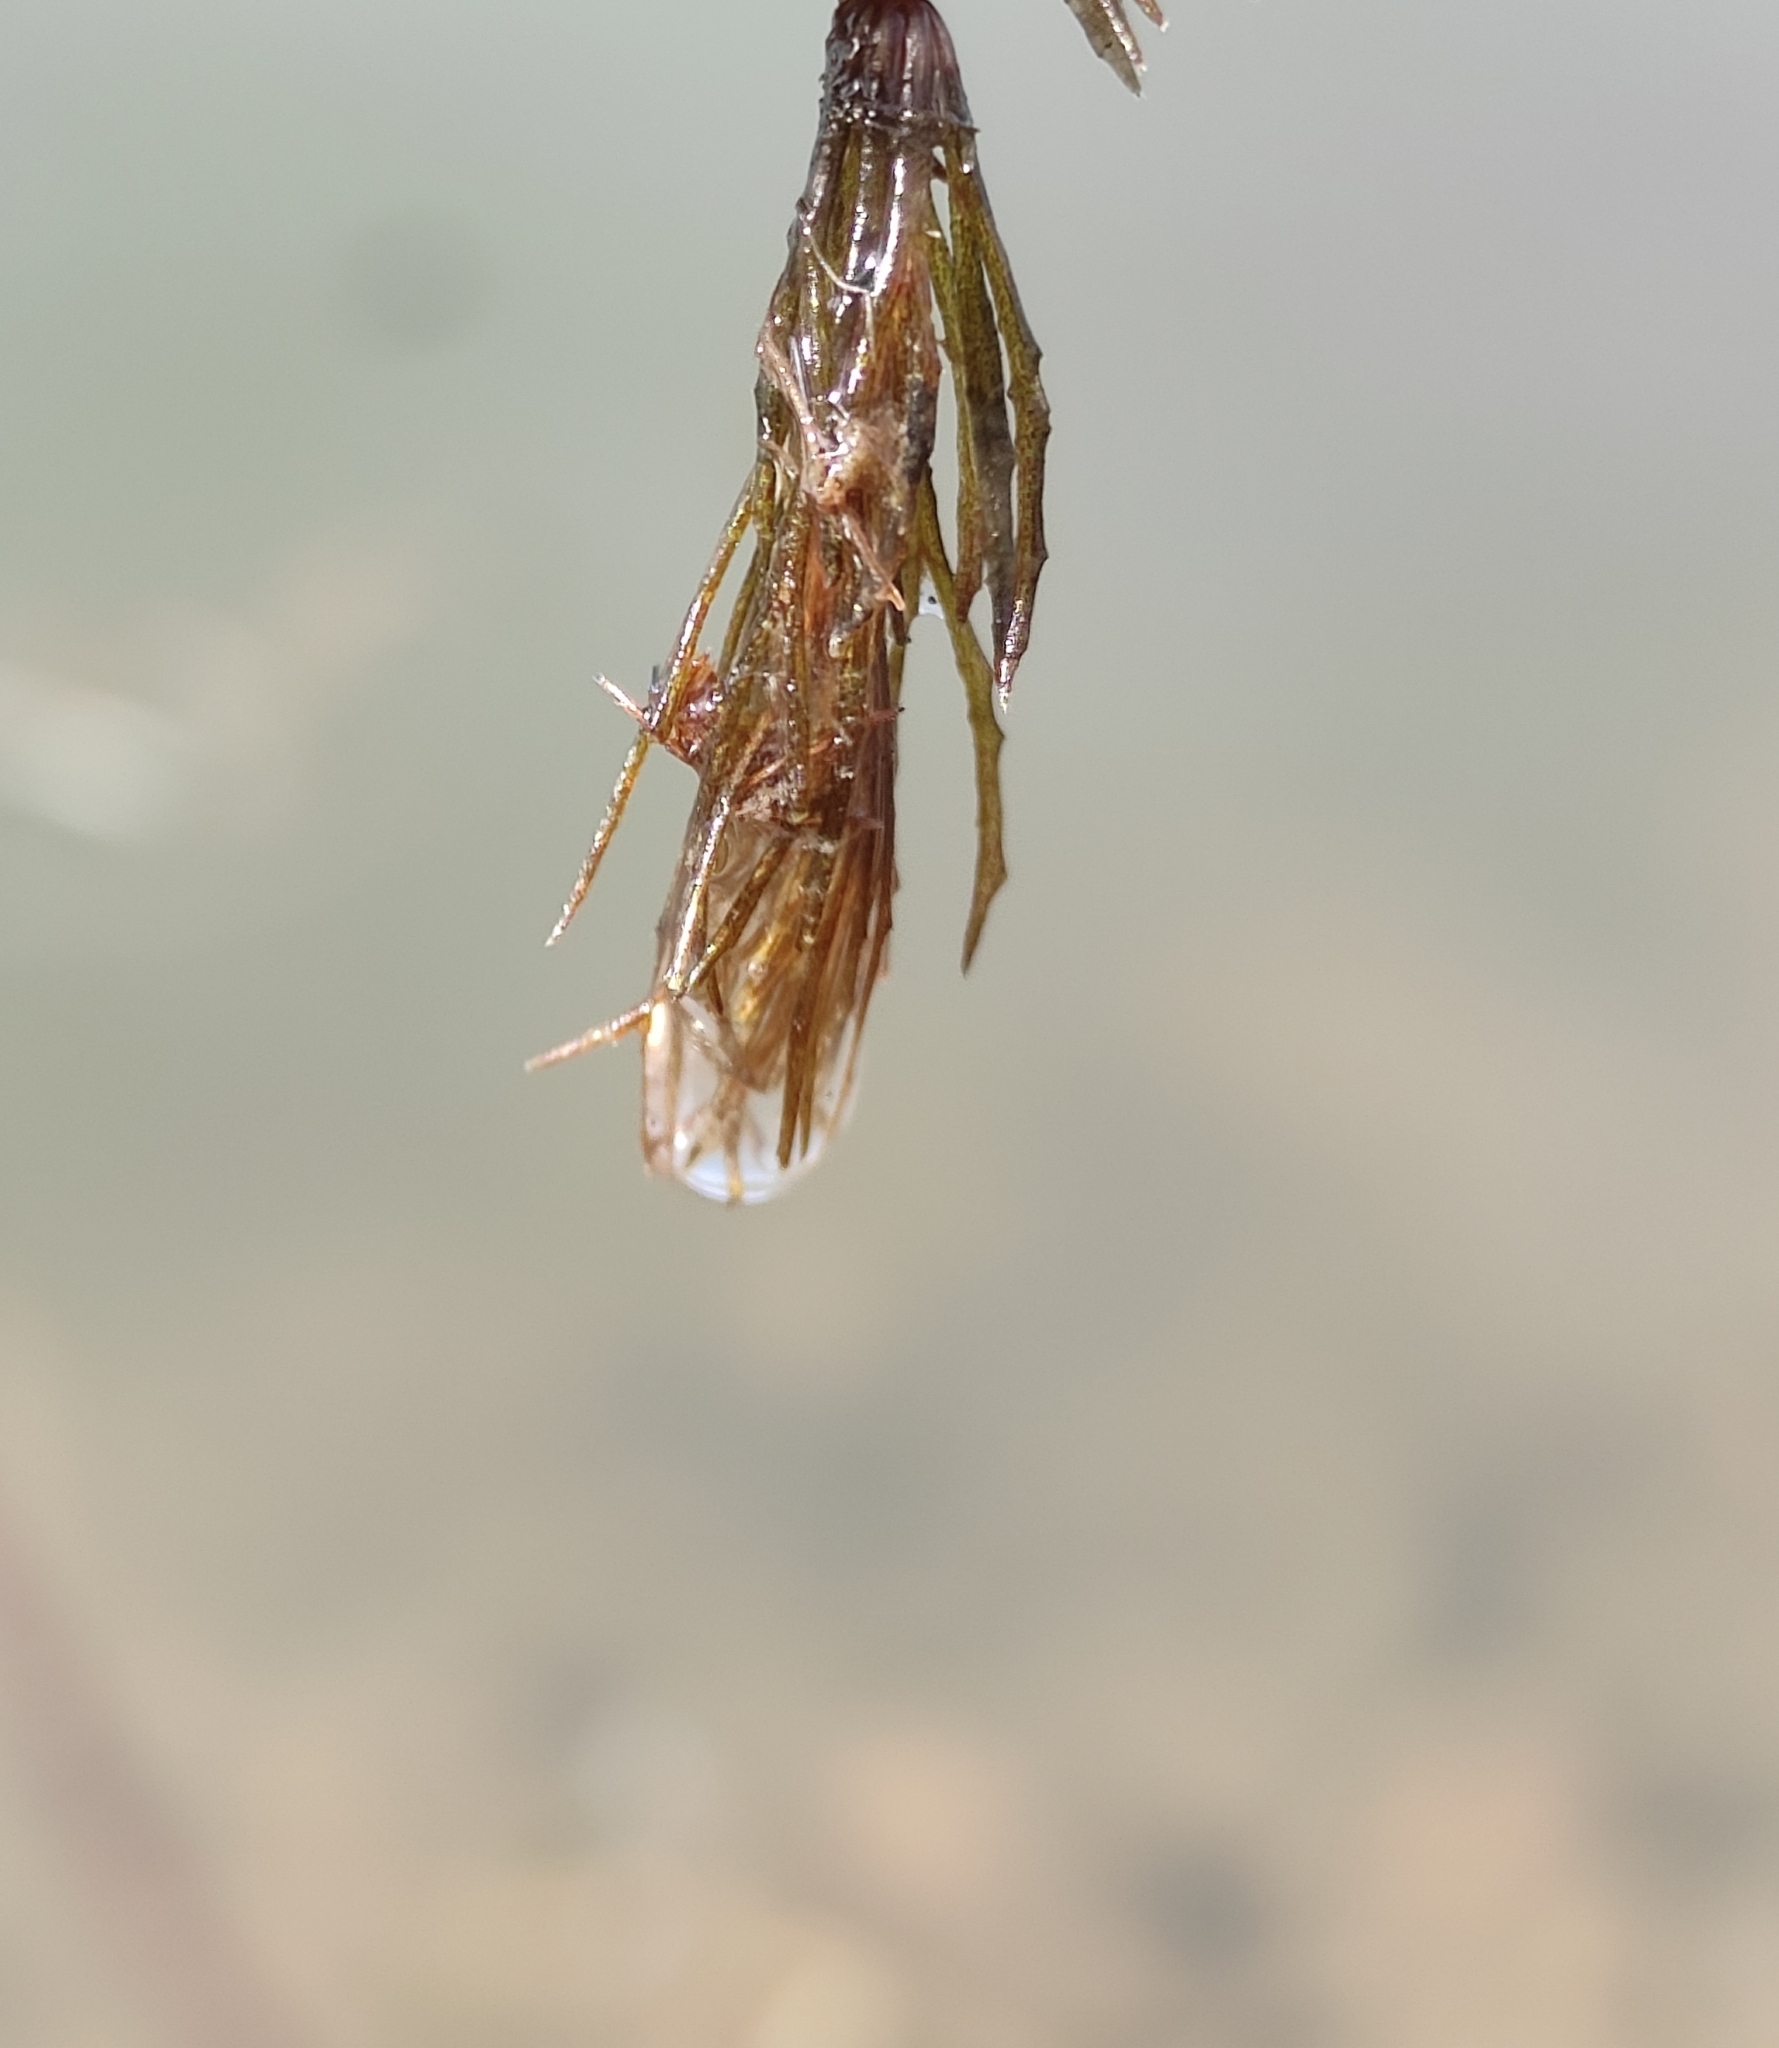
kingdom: Plantae
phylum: Tracheophyta
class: Magnoliopsida
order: Ceratophyllales
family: Ceratophyllaceae
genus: Ceratophyllum
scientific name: Ceratophyllum demersum
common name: Rigid hornwort
